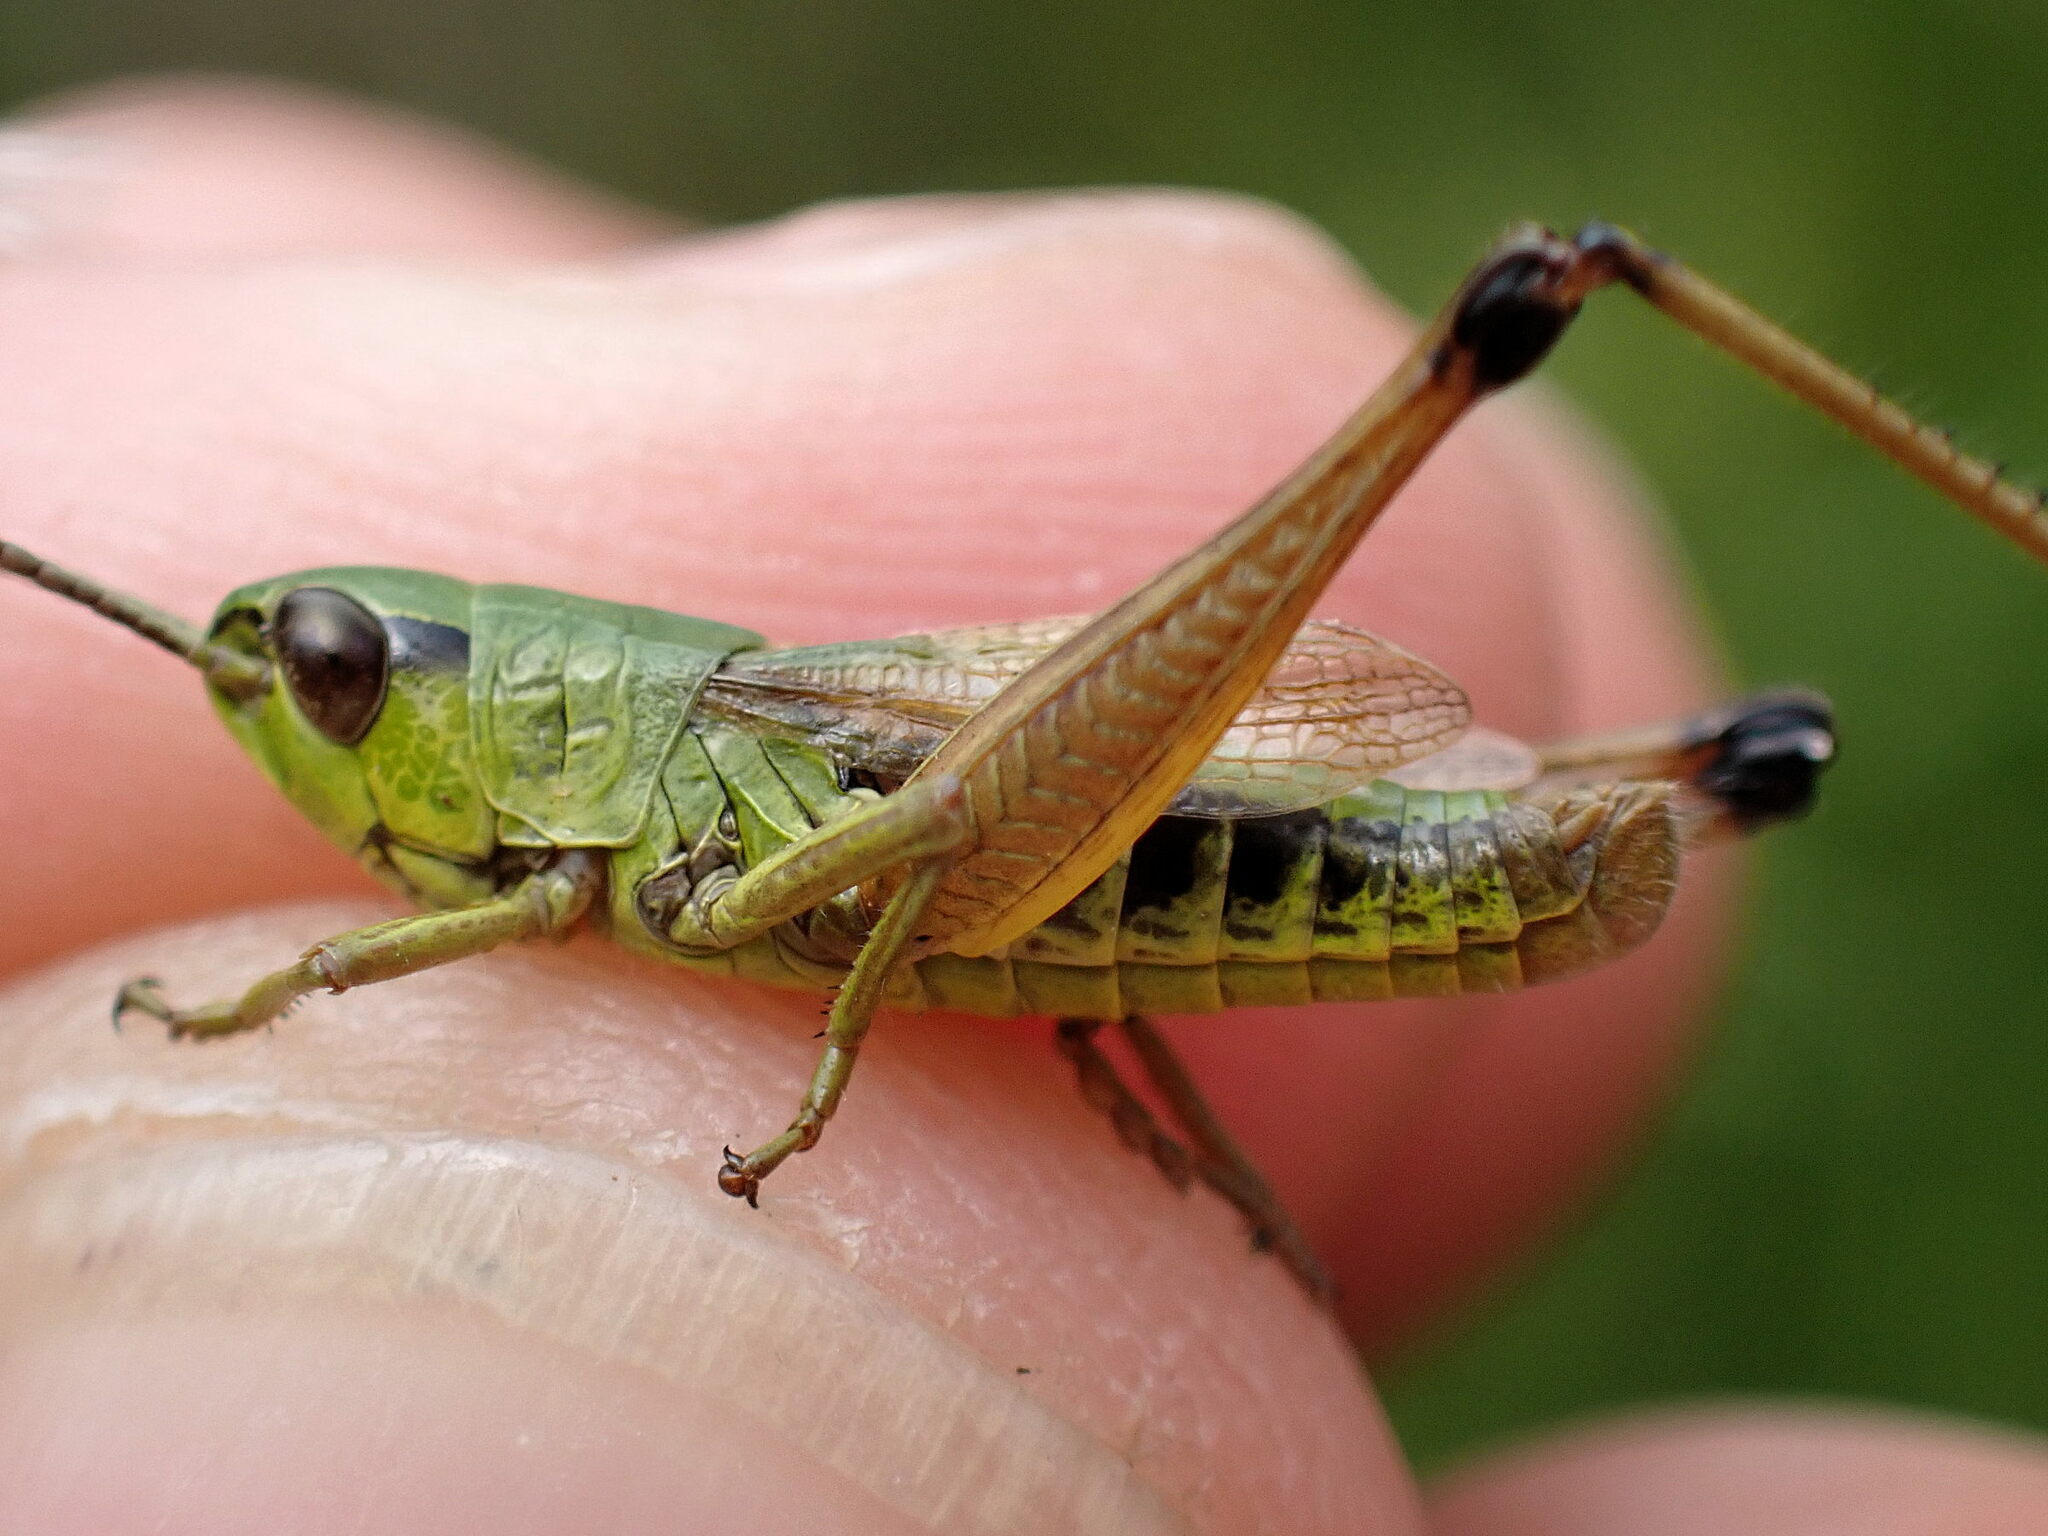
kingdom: Animalia
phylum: Arthropoda
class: Insecta
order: Orthoptera
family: Acrididae
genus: Pseudochorthippus
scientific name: Pseudochorthippus parallelus
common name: Meadow grasshopper
